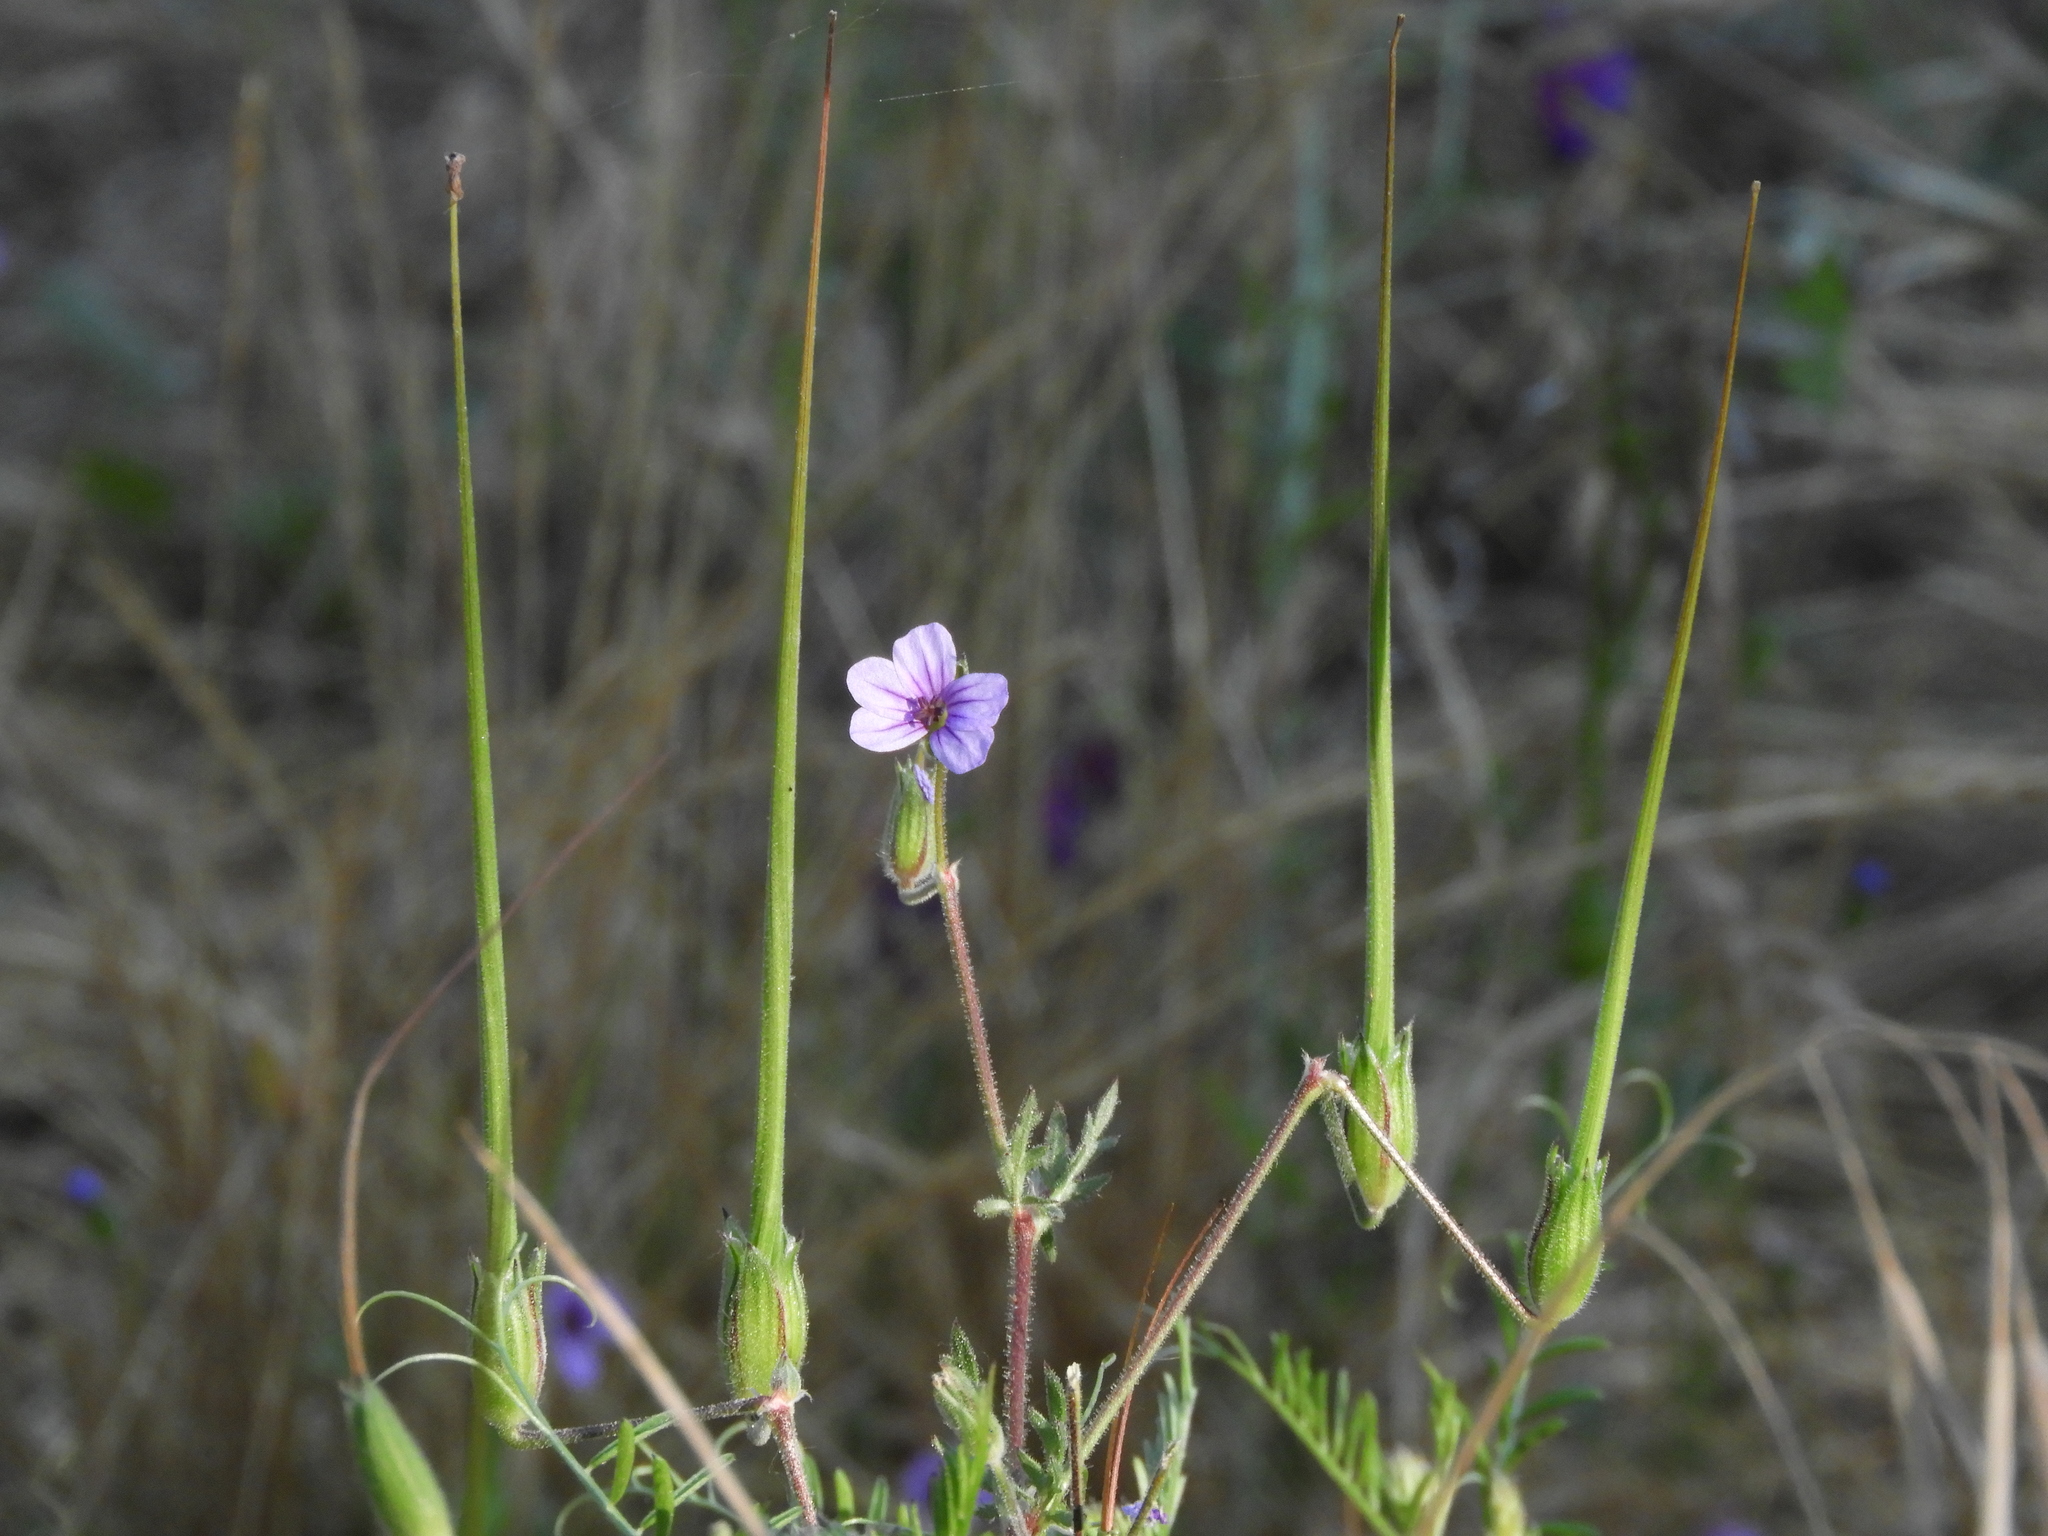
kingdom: Plantae
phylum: Tracheophyta
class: Magnoliopsida
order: Geraniales
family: Geraniaceae
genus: Erodium
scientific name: Erodium botrys
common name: Mediterranean stork's-bill
